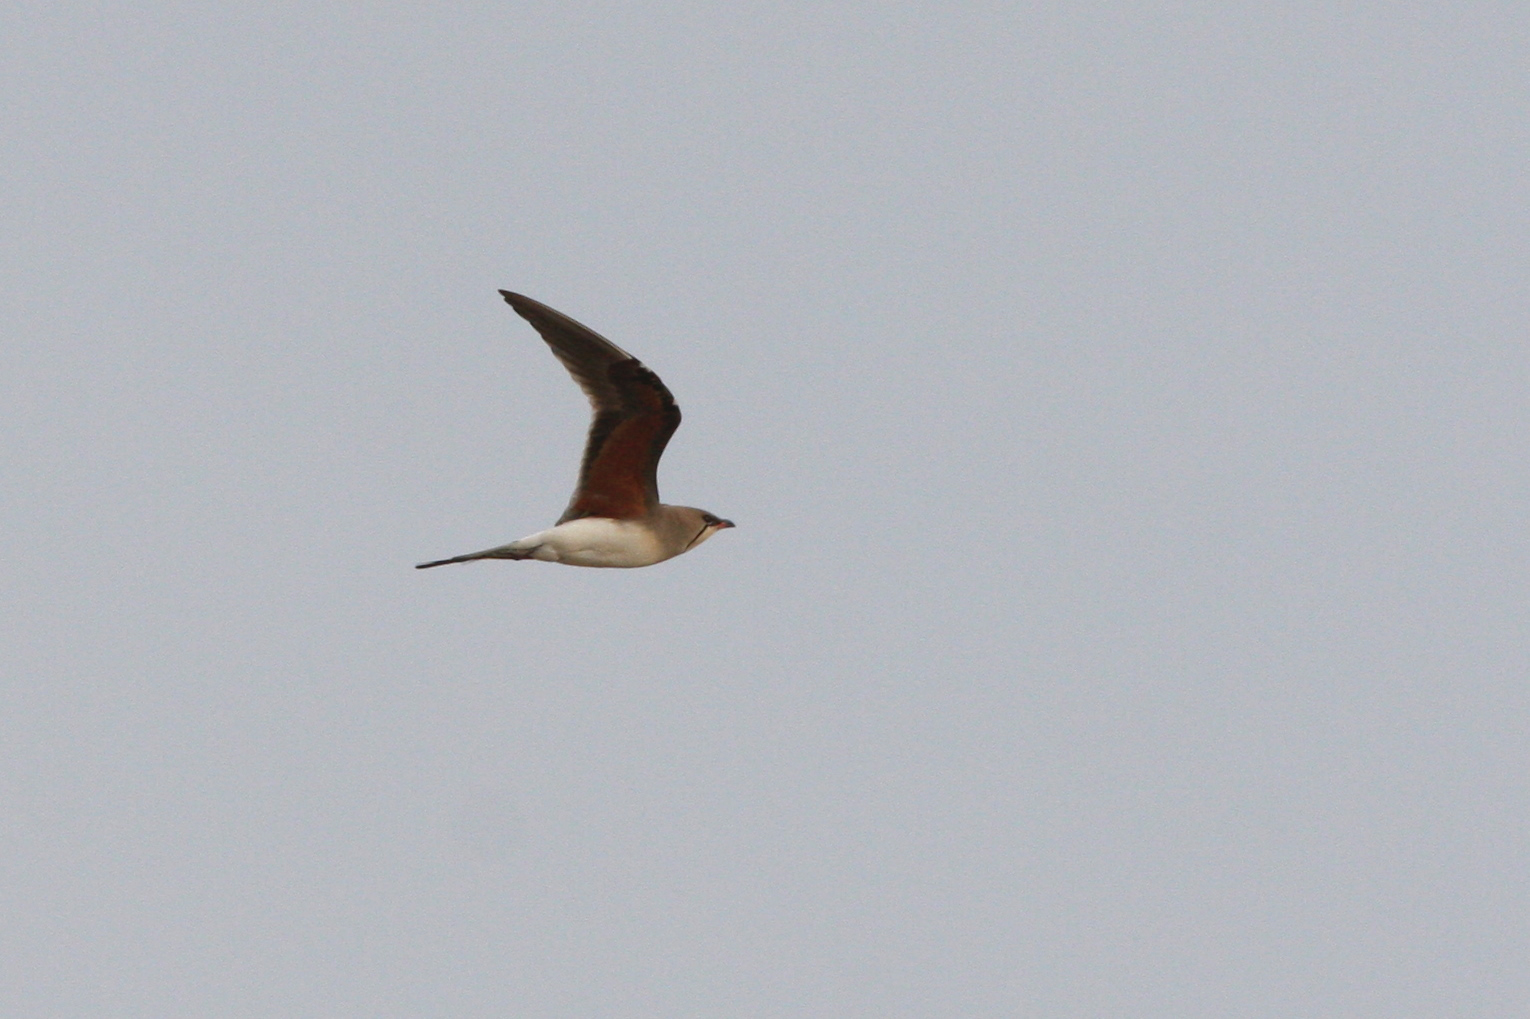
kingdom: Animalia
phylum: Chordata
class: Aves
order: Charadriiformes
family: Glareolidae
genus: Glareola
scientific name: Glareola pratincola
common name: Collared pratincole
